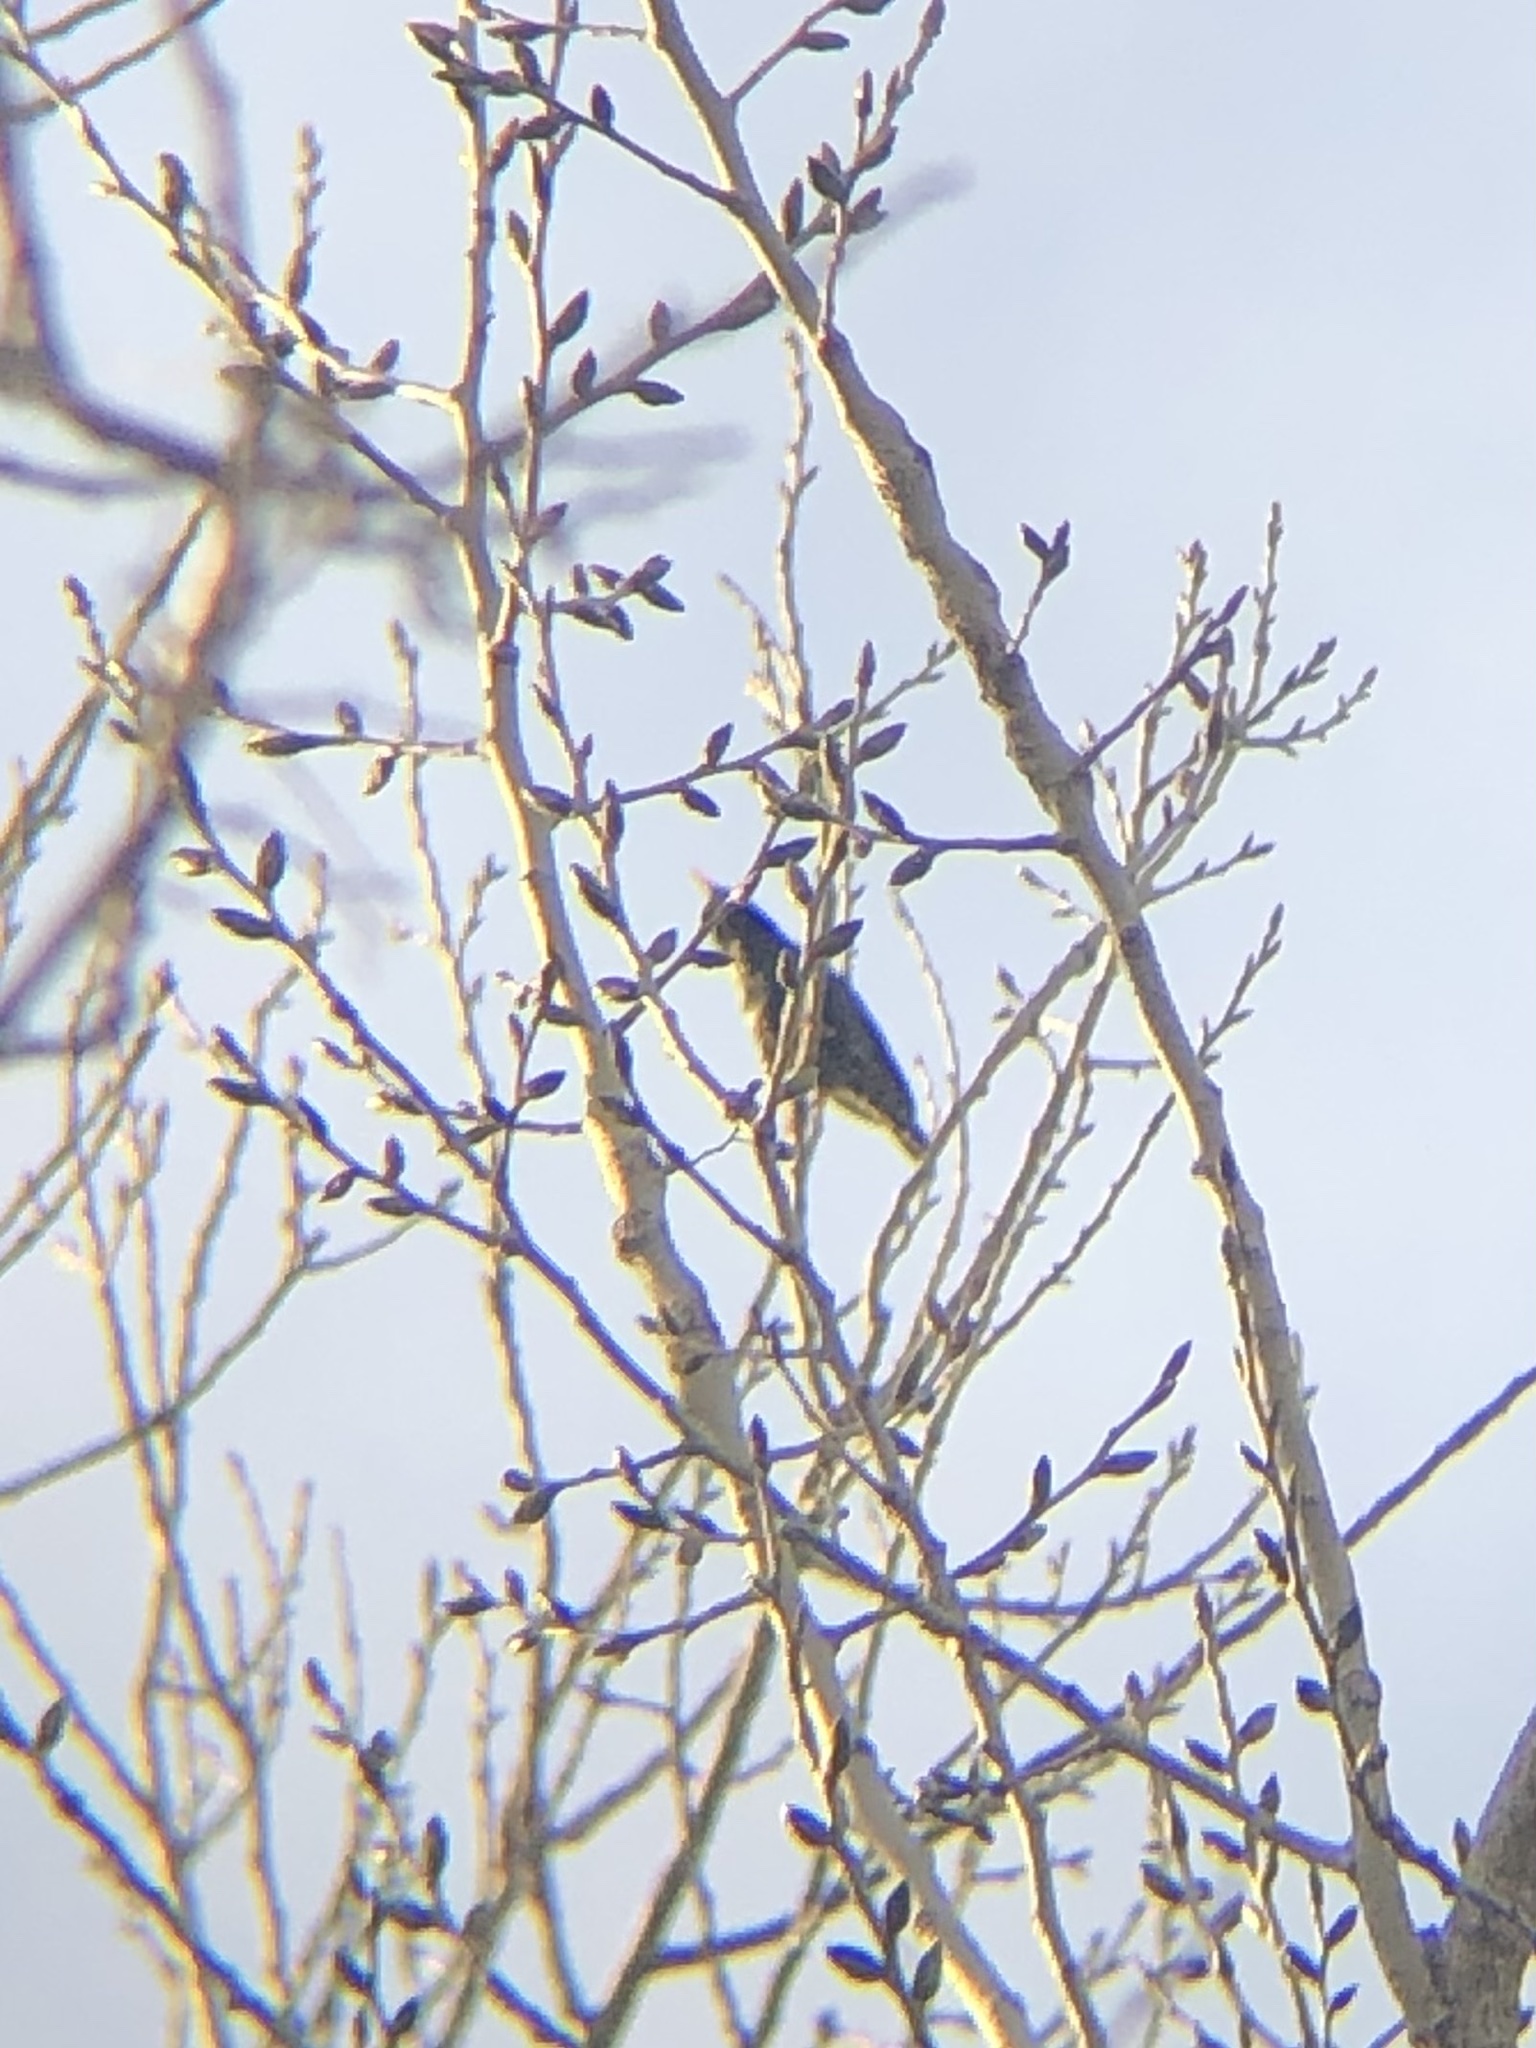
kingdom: Animalia
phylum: Chordata
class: Aves
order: Passeriformes
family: Sturnidae
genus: Sturnus
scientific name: Sturnus vulgaris
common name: Common starling
